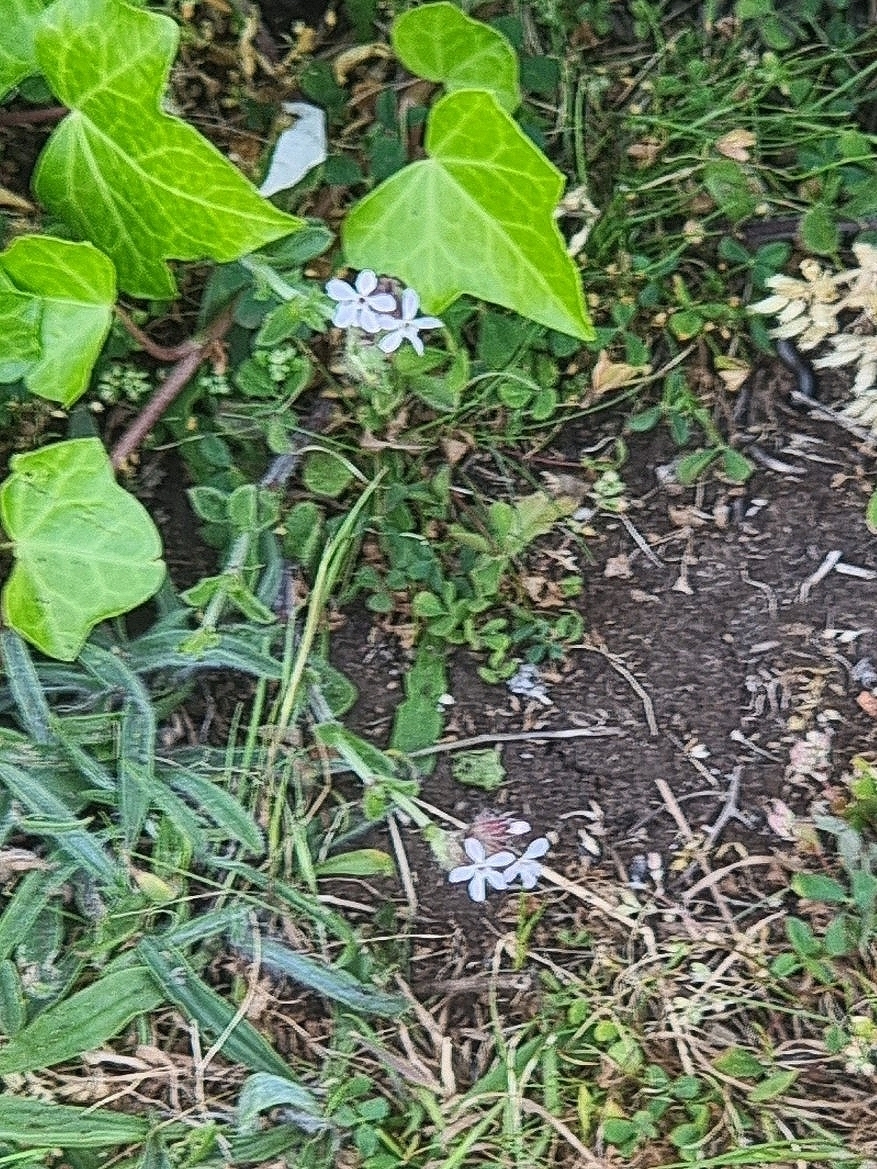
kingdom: Plantae
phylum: Tracheophyta
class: Magnoliopsida
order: Caryophyllales
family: Caryophyllaceae
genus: Silene
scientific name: Silene gallica
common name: Small-flowered catchfly
